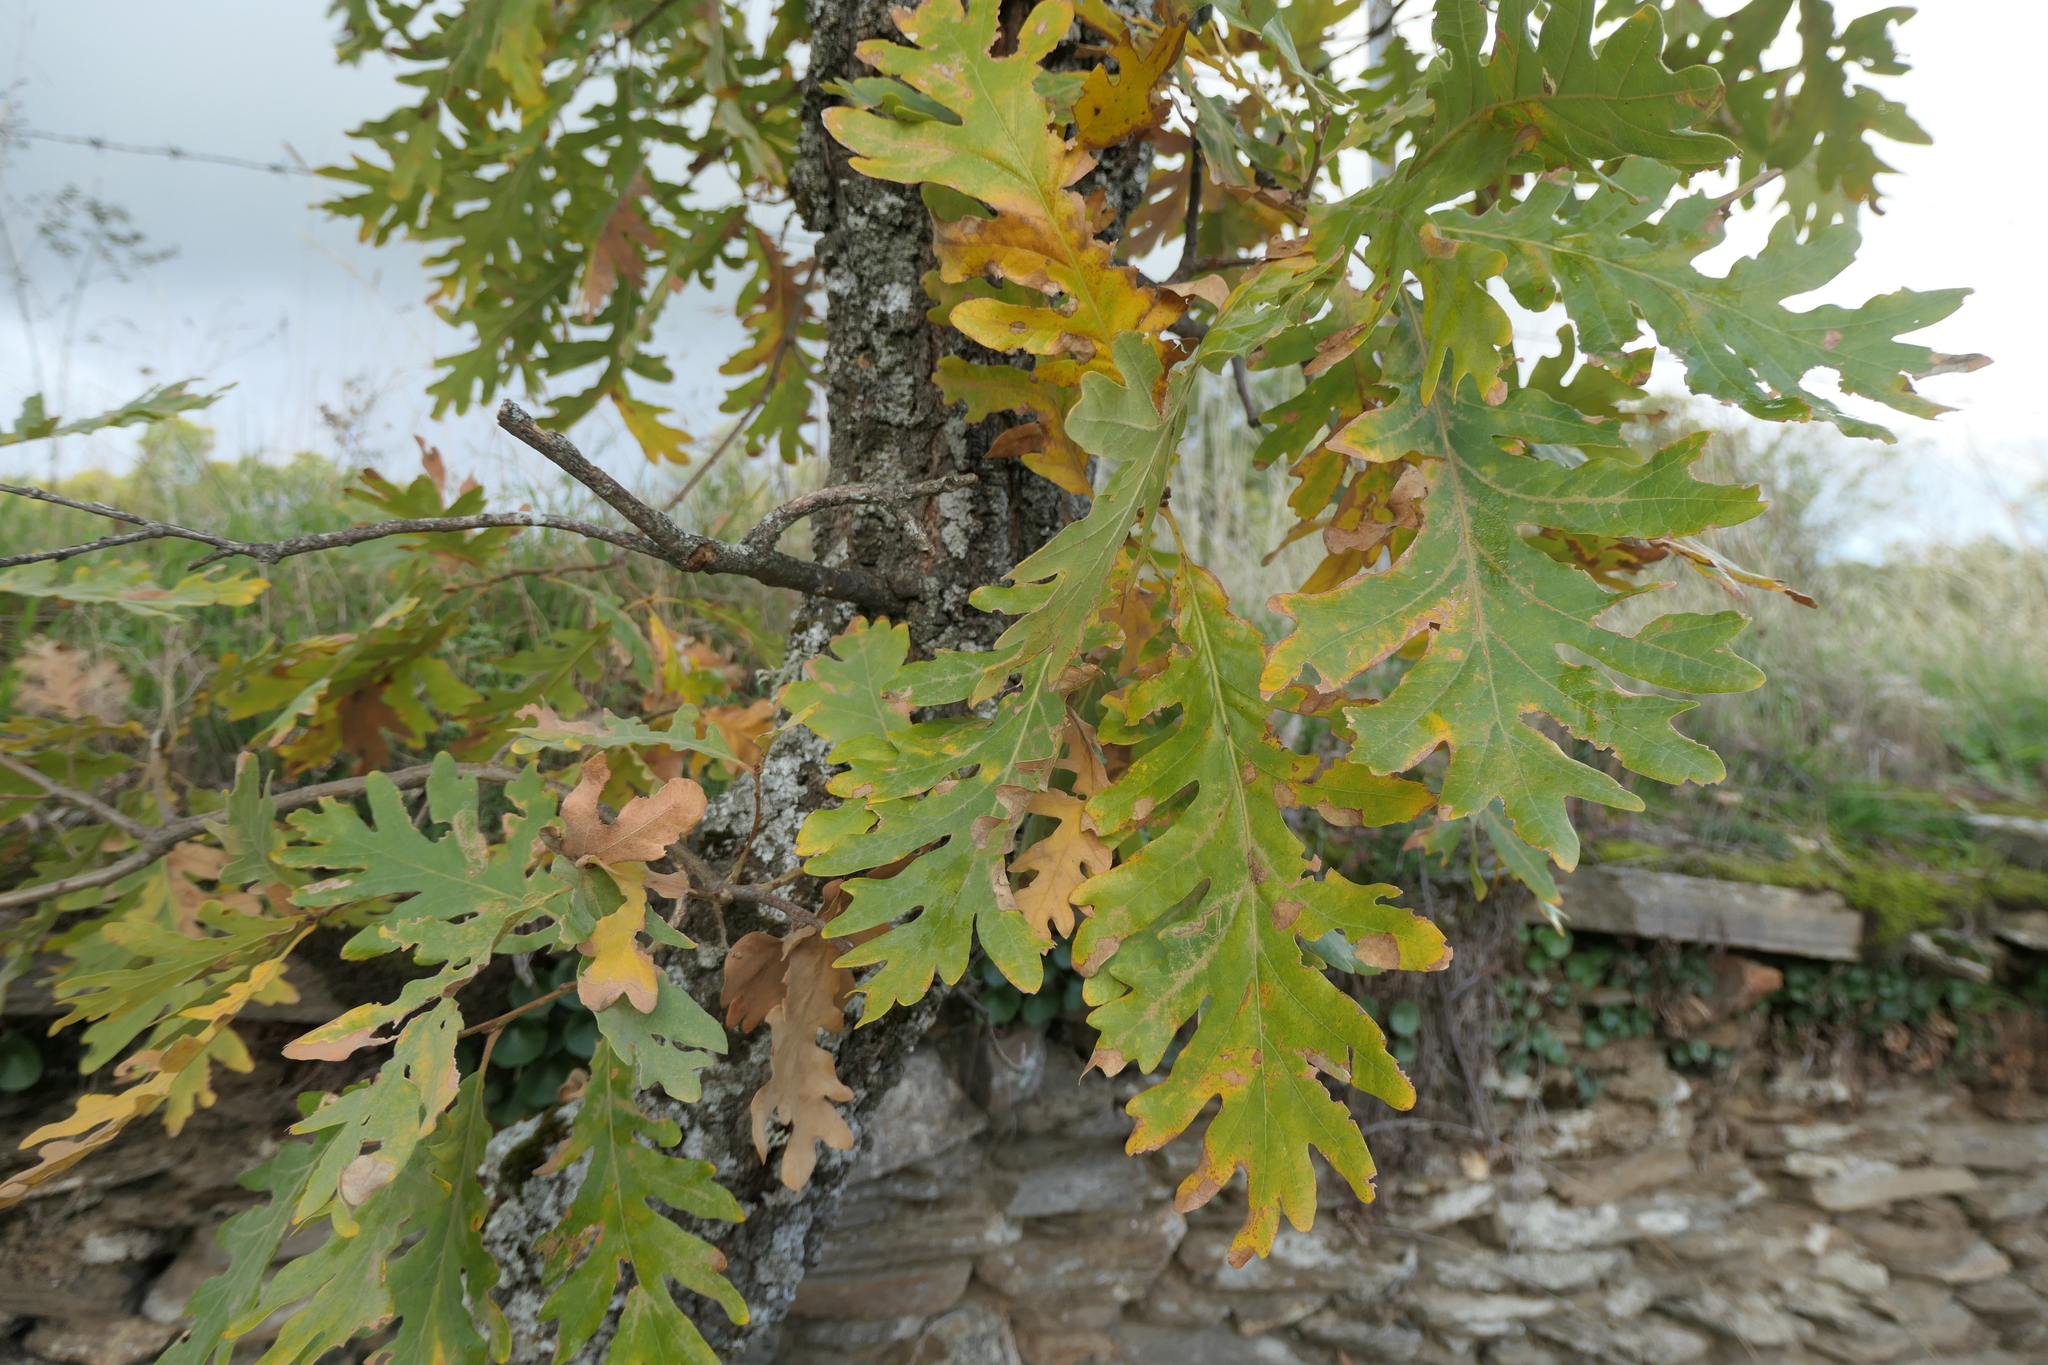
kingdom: Plantae
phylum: Tracheophyta
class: Magnoliopsida
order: Fagales
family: Fagaceae
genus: Quercus
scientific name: Quercus pyrenaica
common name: Pyrenean oak
